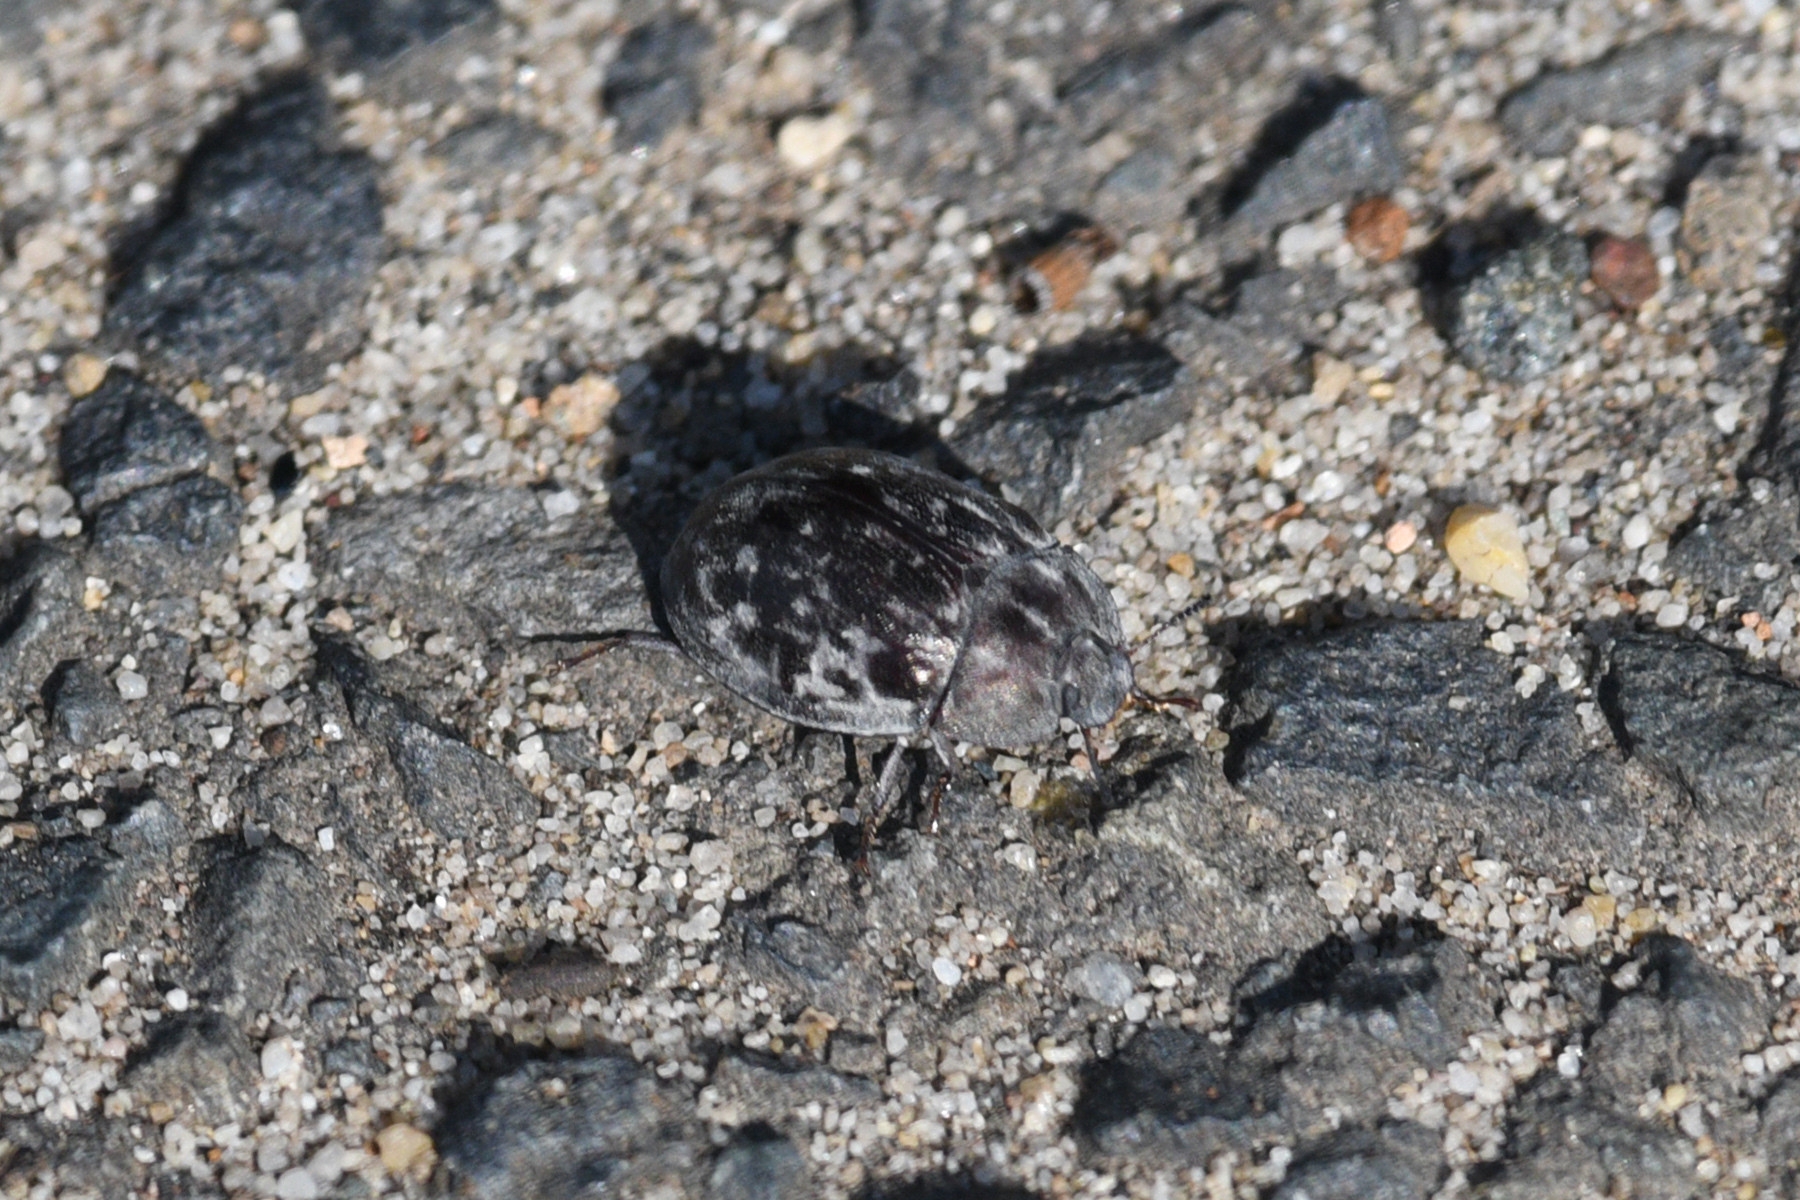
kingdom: Animalia
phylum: Arthropoda
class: Insecta
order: Coleoptera
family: Tenebrionidae
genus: Ospidus
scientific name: Ospidus
